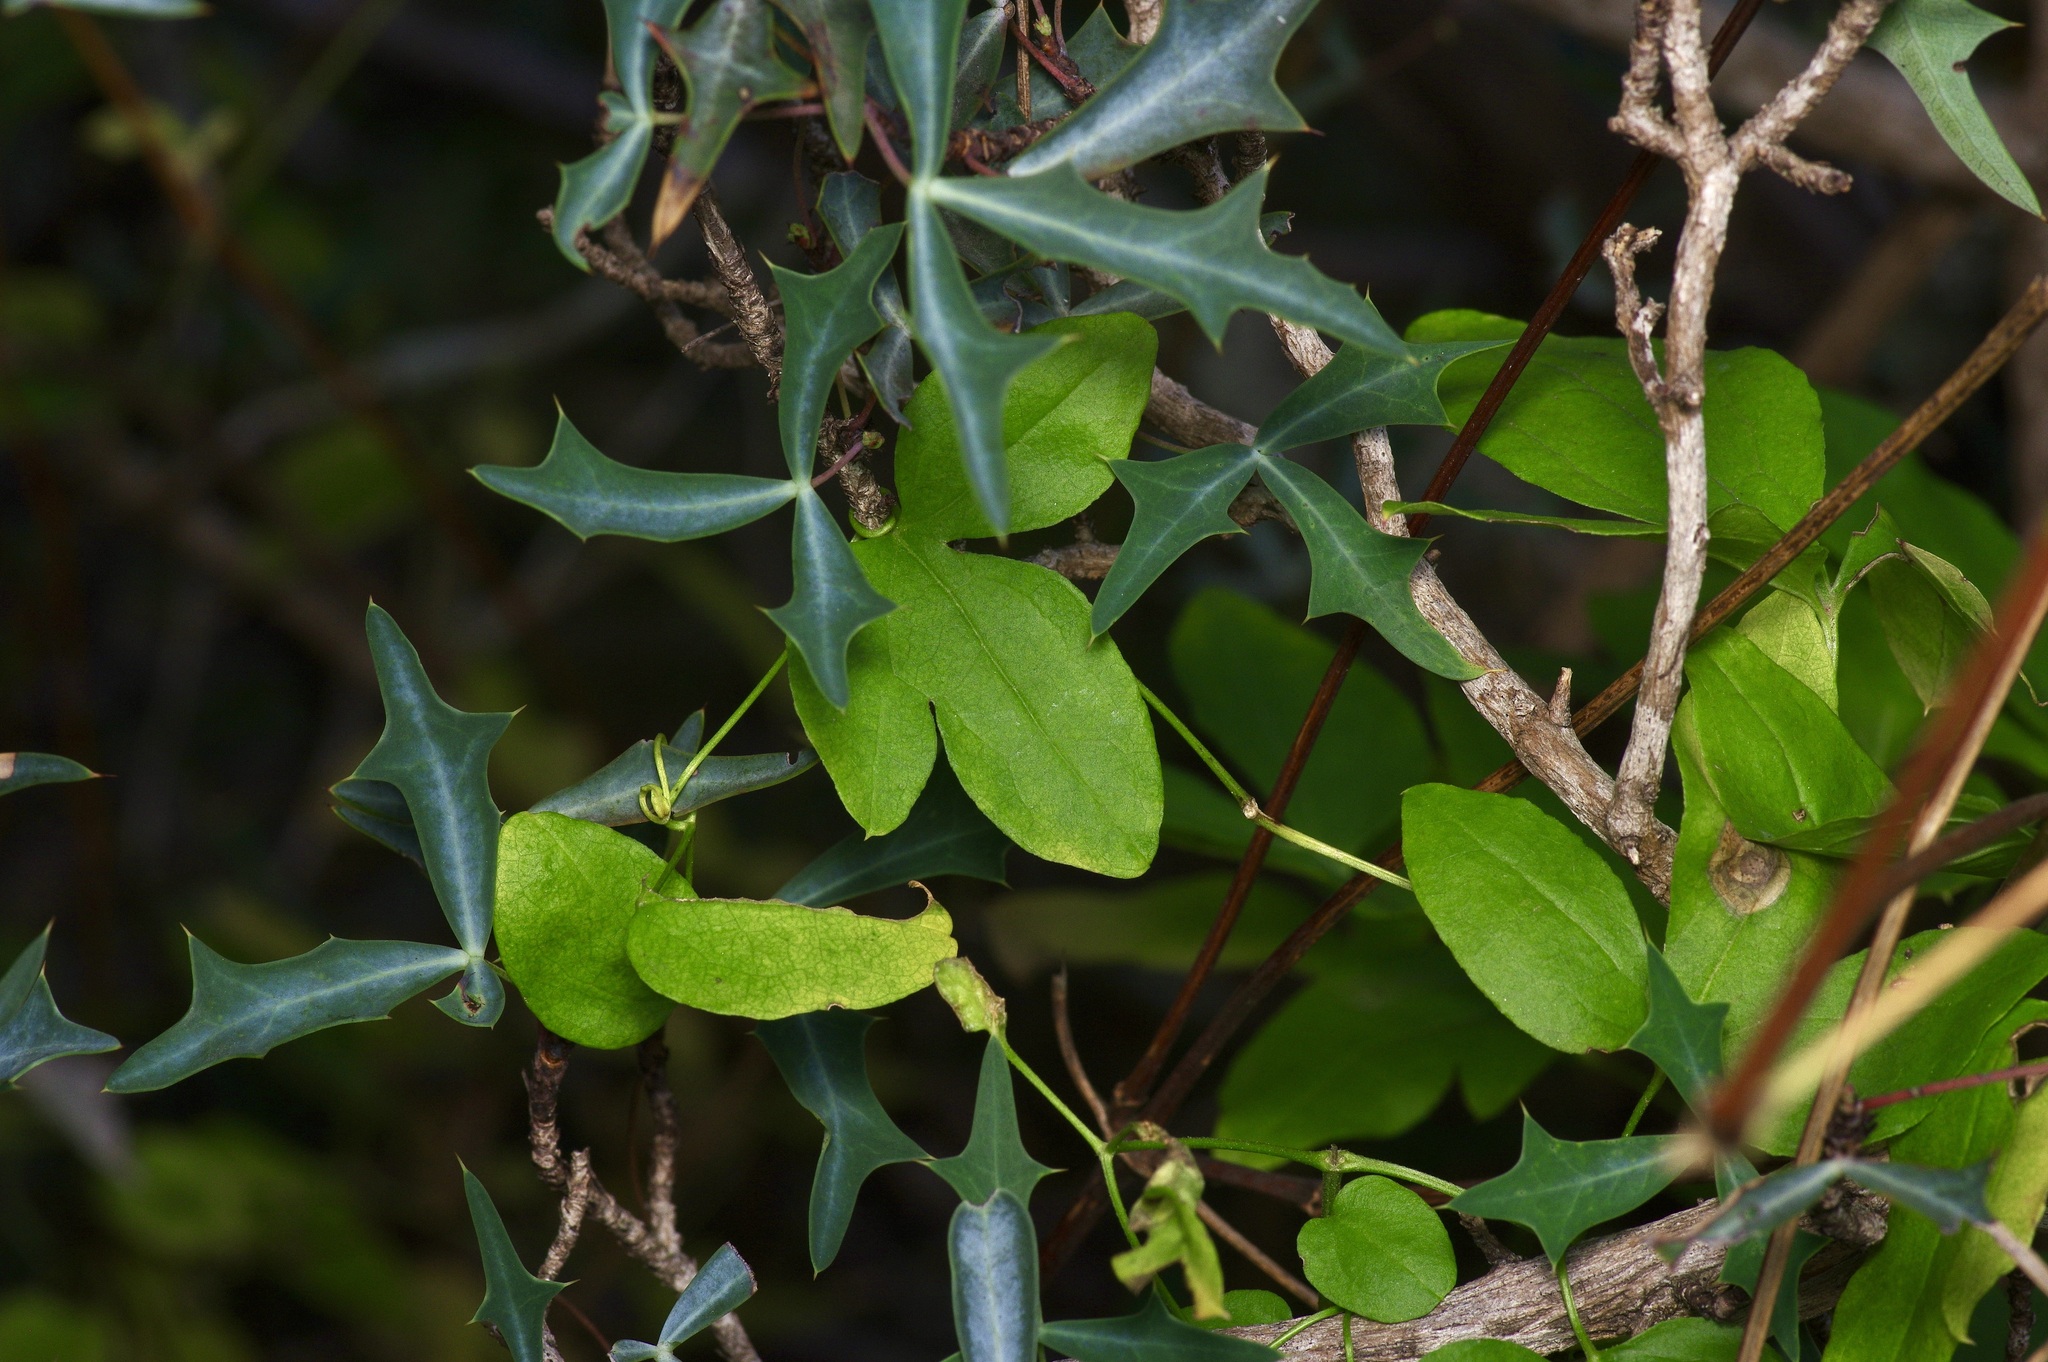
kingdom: Plantae
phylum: Tracheophyta
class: Magnoliopsida
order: Ranunculales
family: Ranunculaceae
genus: Clematis
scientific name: Clematis pitcheri
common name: Bellflower clematis
